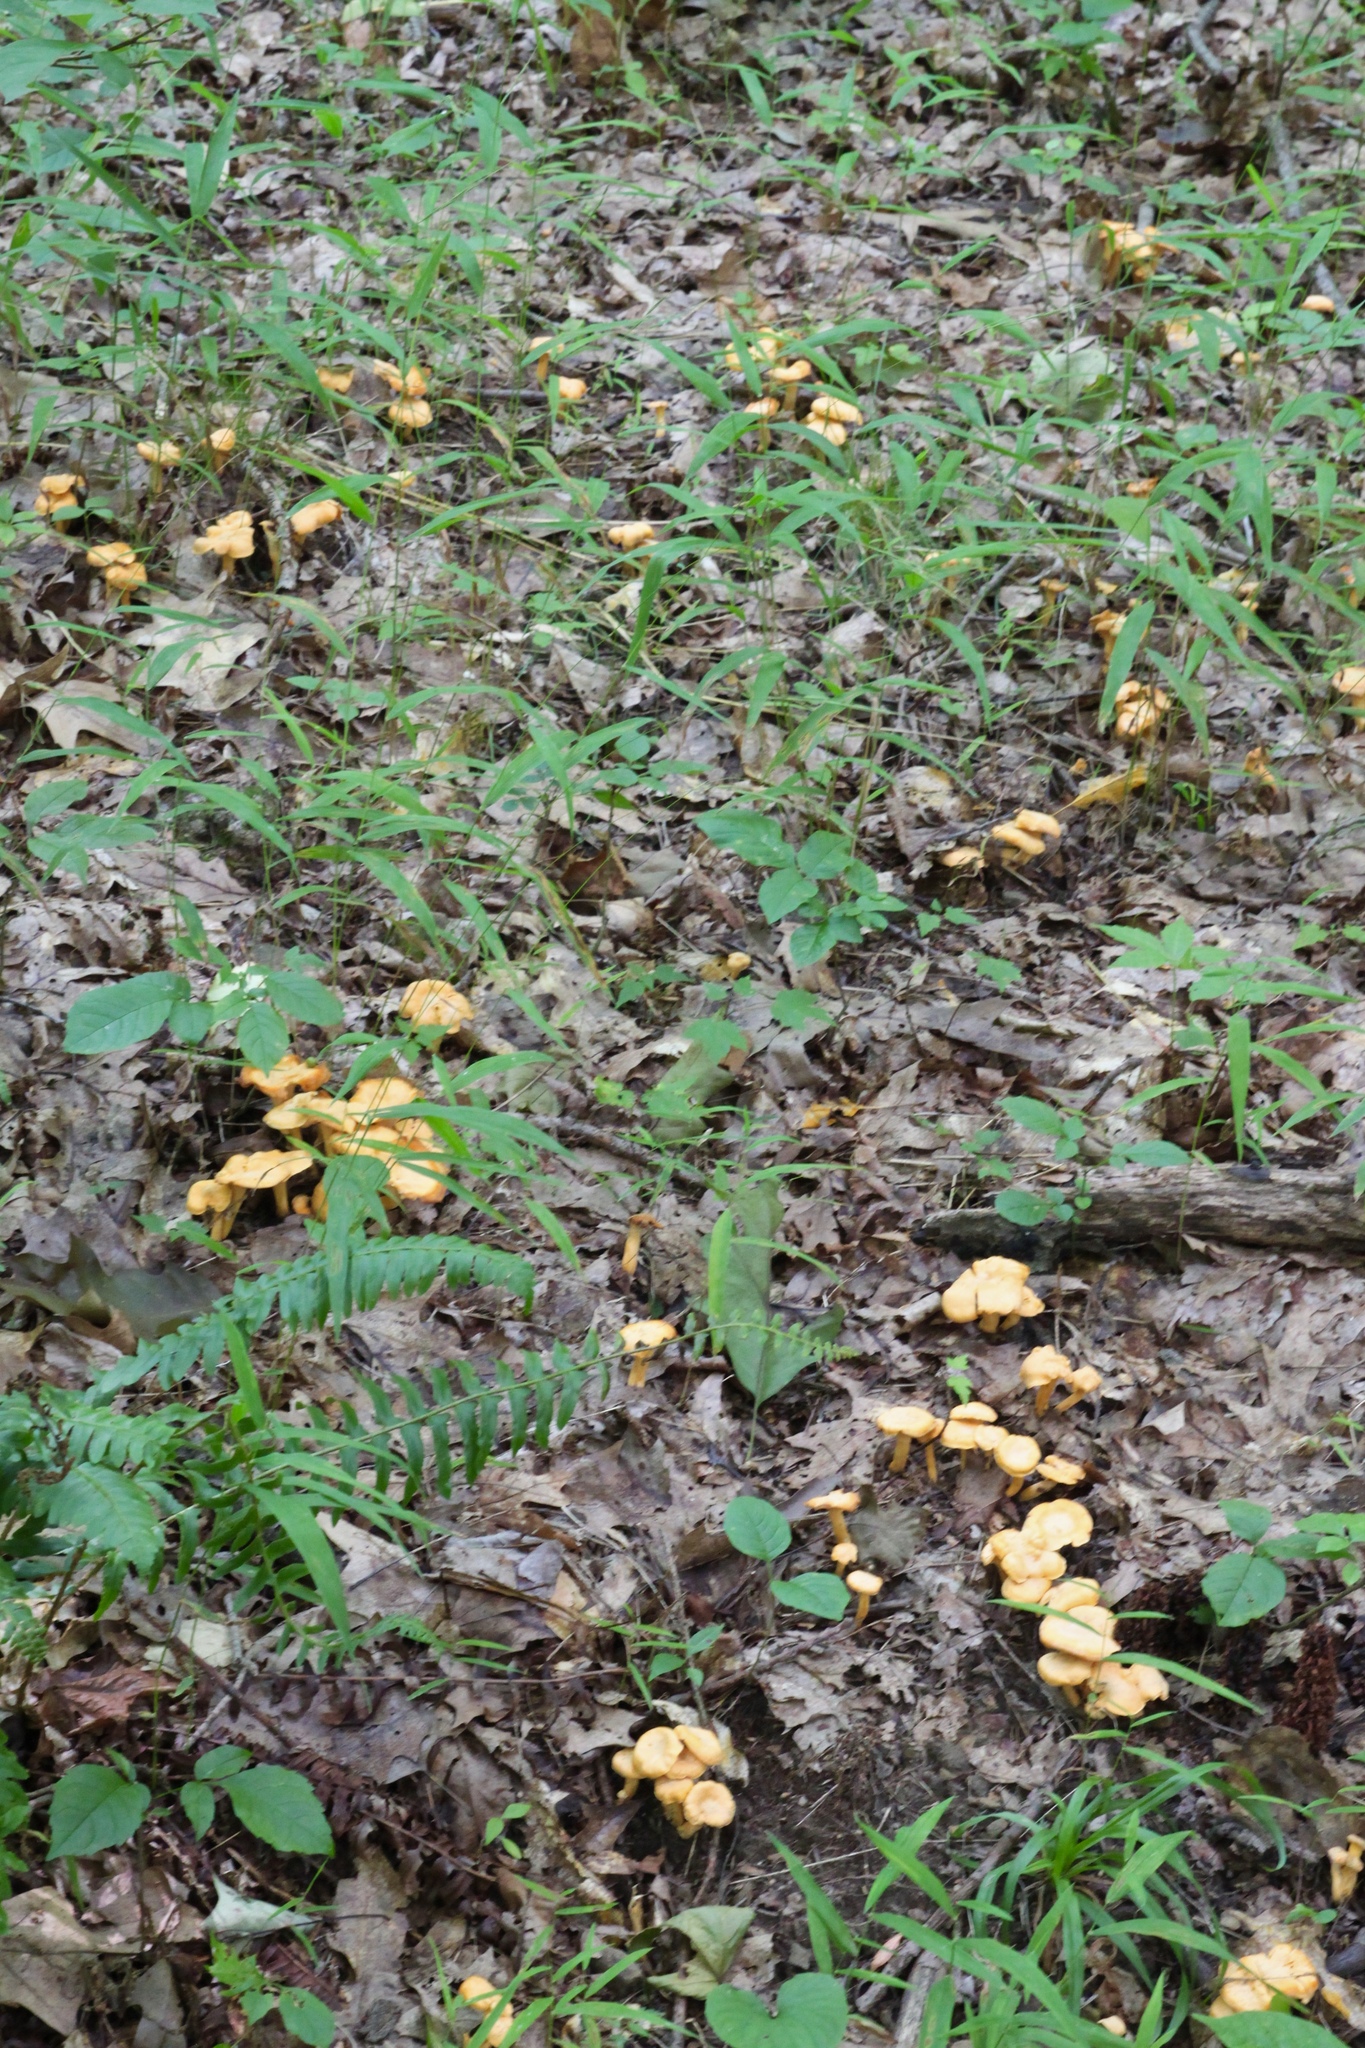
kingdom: Fungi
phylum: Basidiomycota
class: Agaricomycetes
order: Cantharellales
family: Hydnaceae
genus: Cantharellus
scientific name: Cantharellus lateritius
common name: Smooth chanterelle
